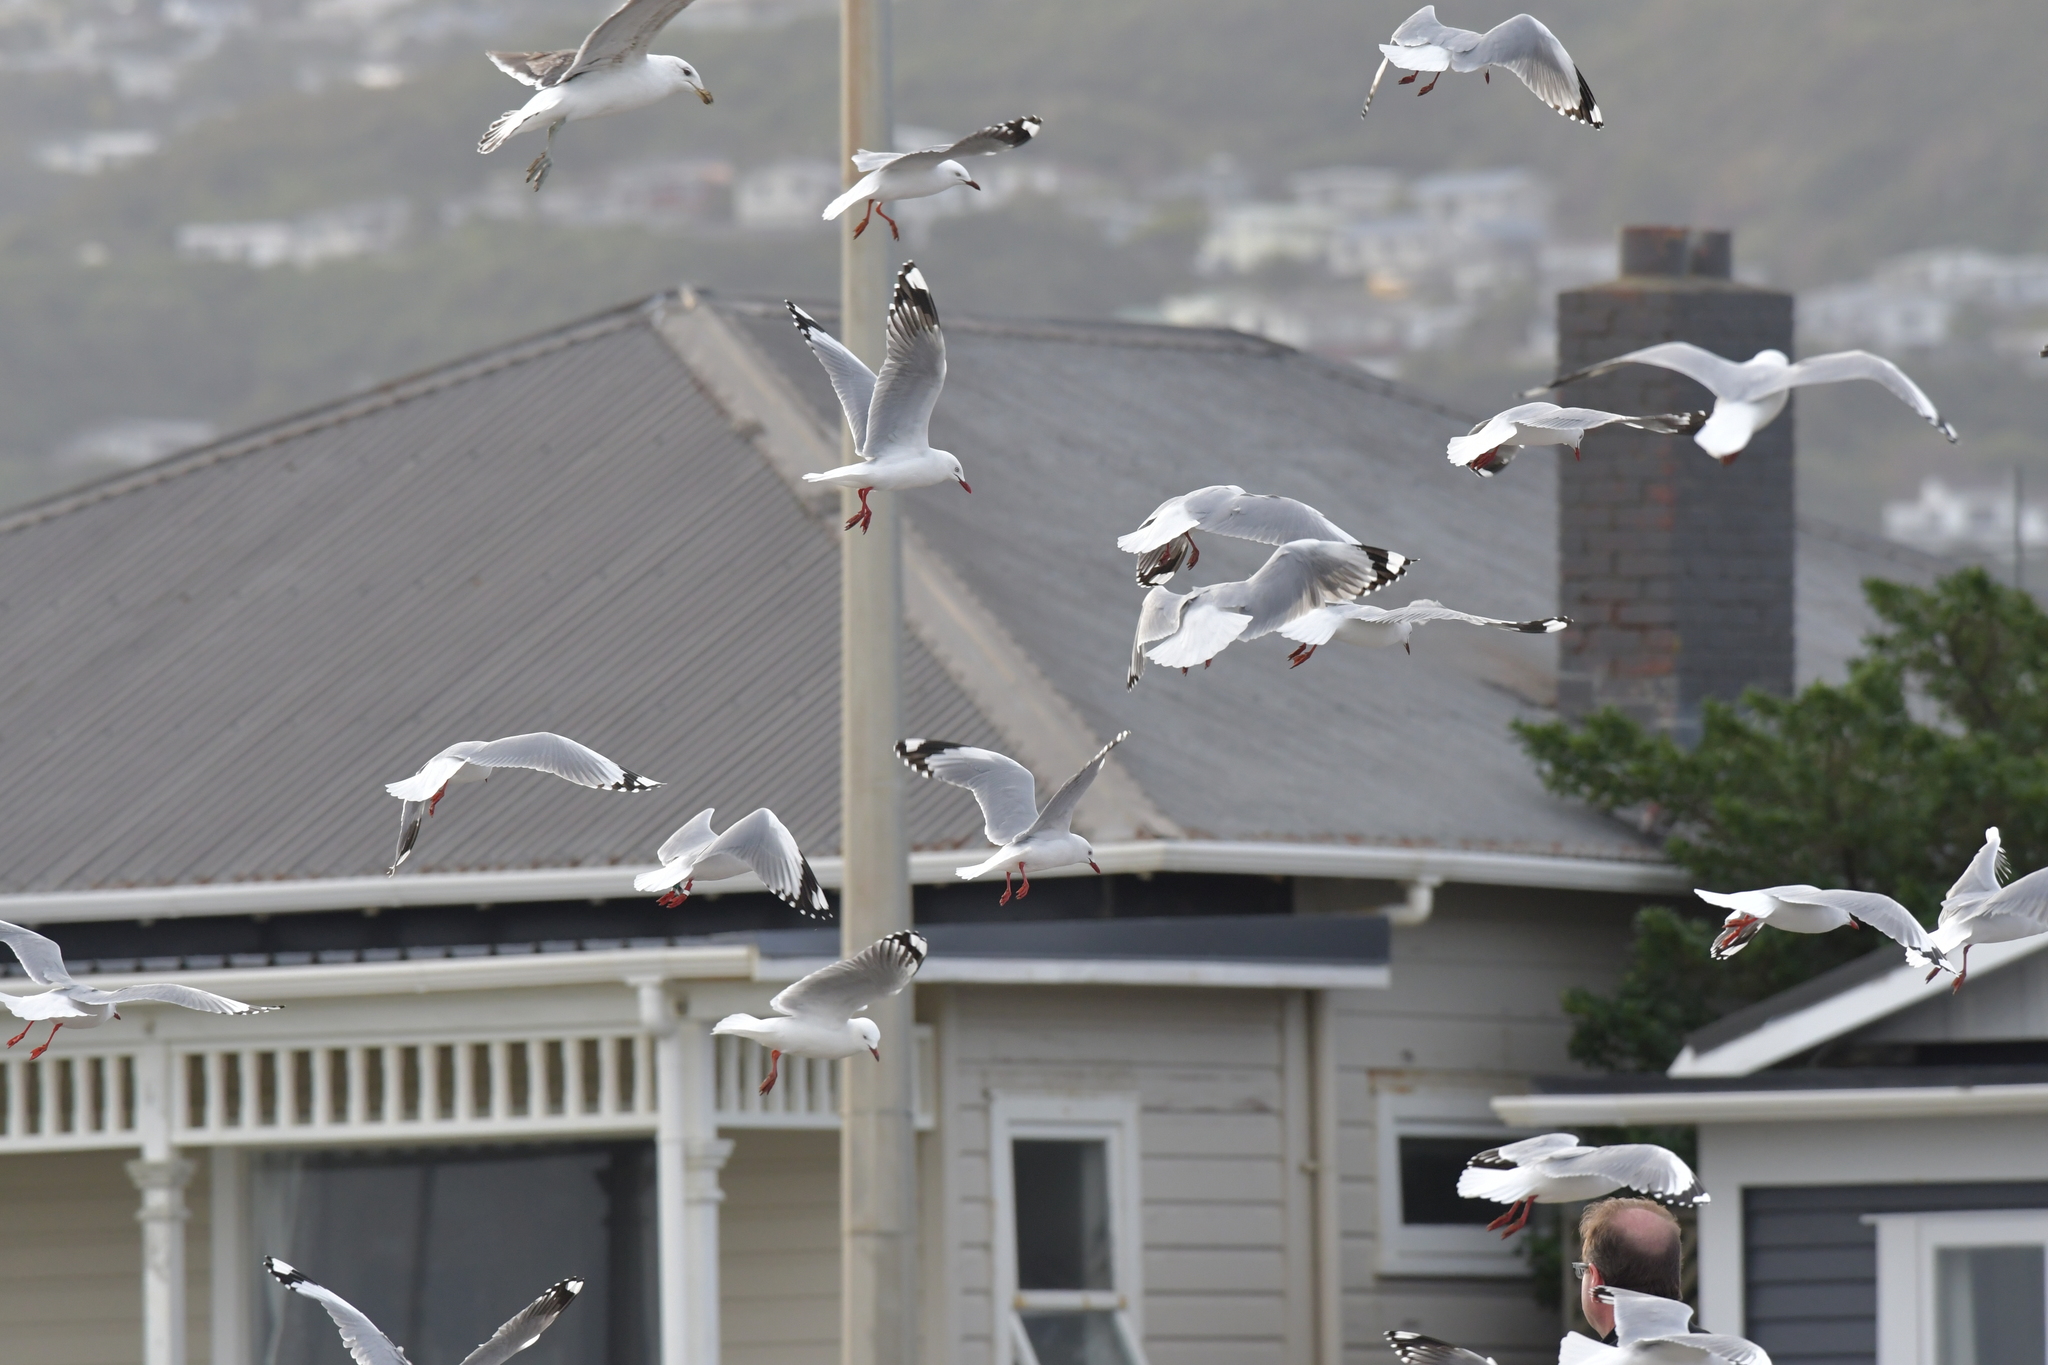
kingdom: Animalia
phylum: Chordata
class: Aves
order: Charadriiformes
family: Laridae
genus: Chroicocephalus
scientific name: Chroicocephalus novaehollandiae
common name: Silver gull
